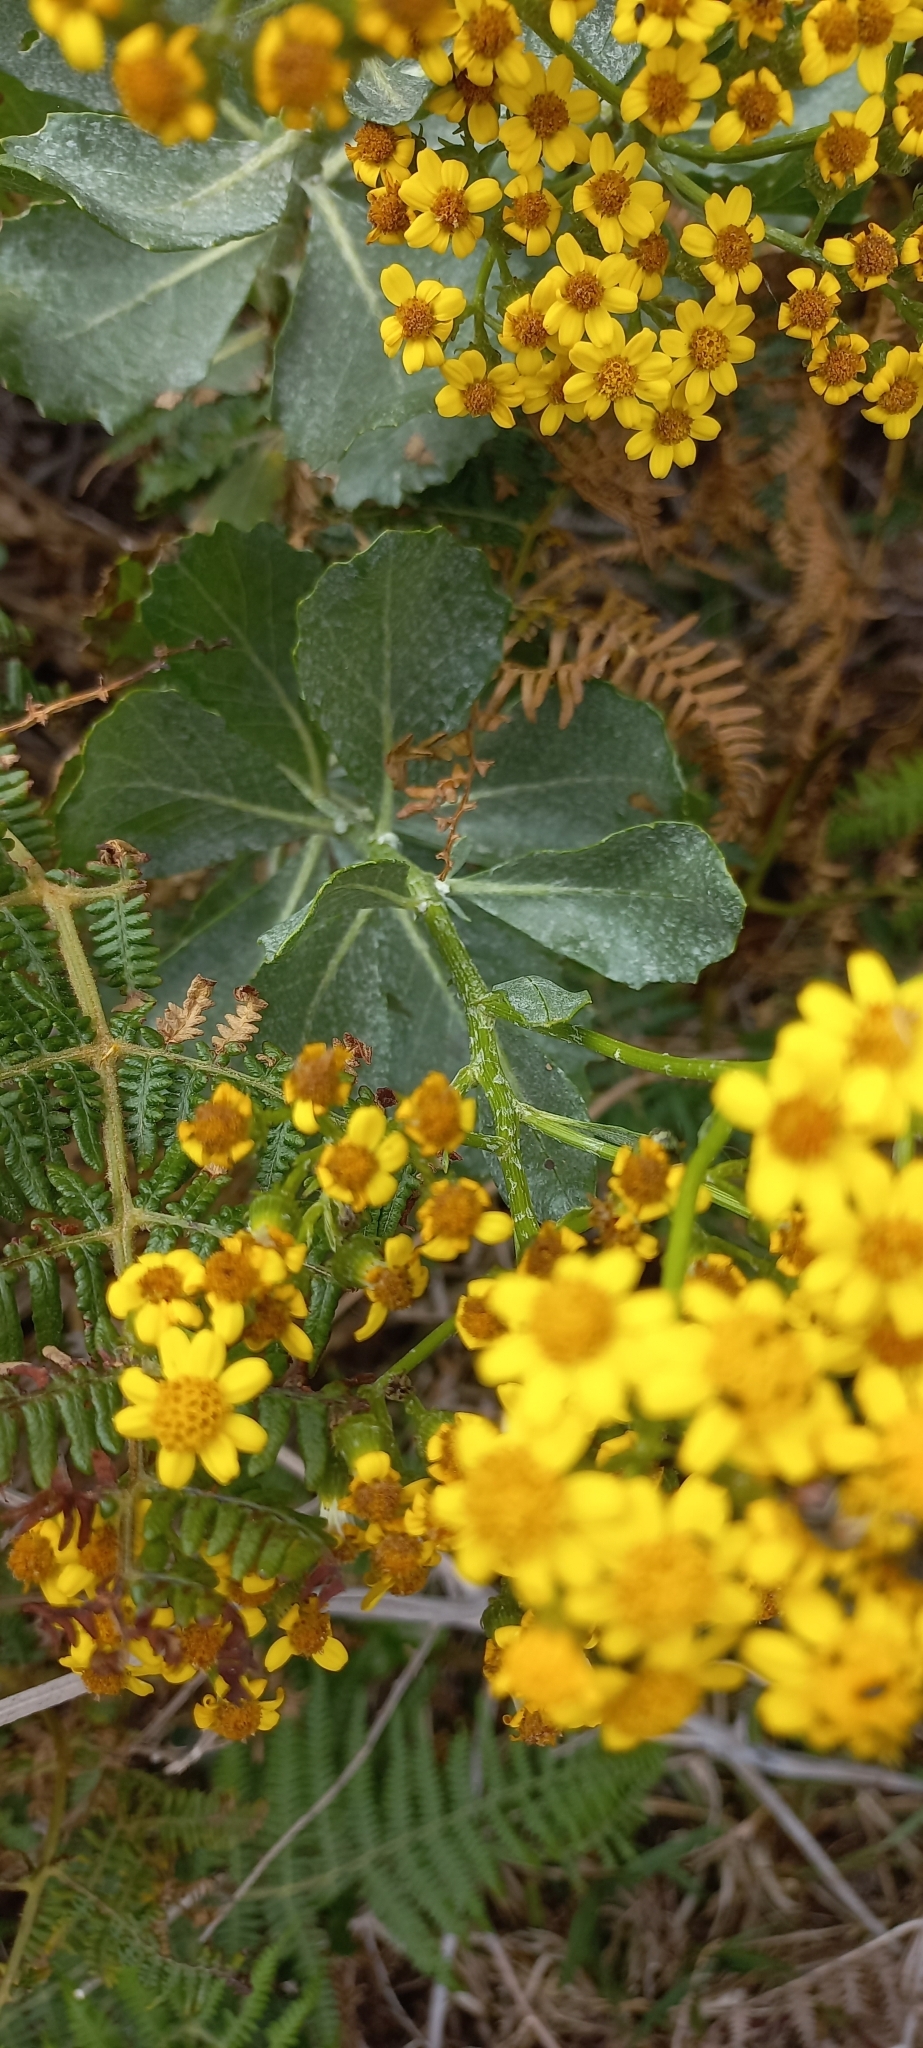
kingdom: Plantae
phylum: Tracheophyta
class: Magnoliopsida
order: Asterales
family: Asteraceae
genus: Senecio
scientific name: Senecio halimifolius
